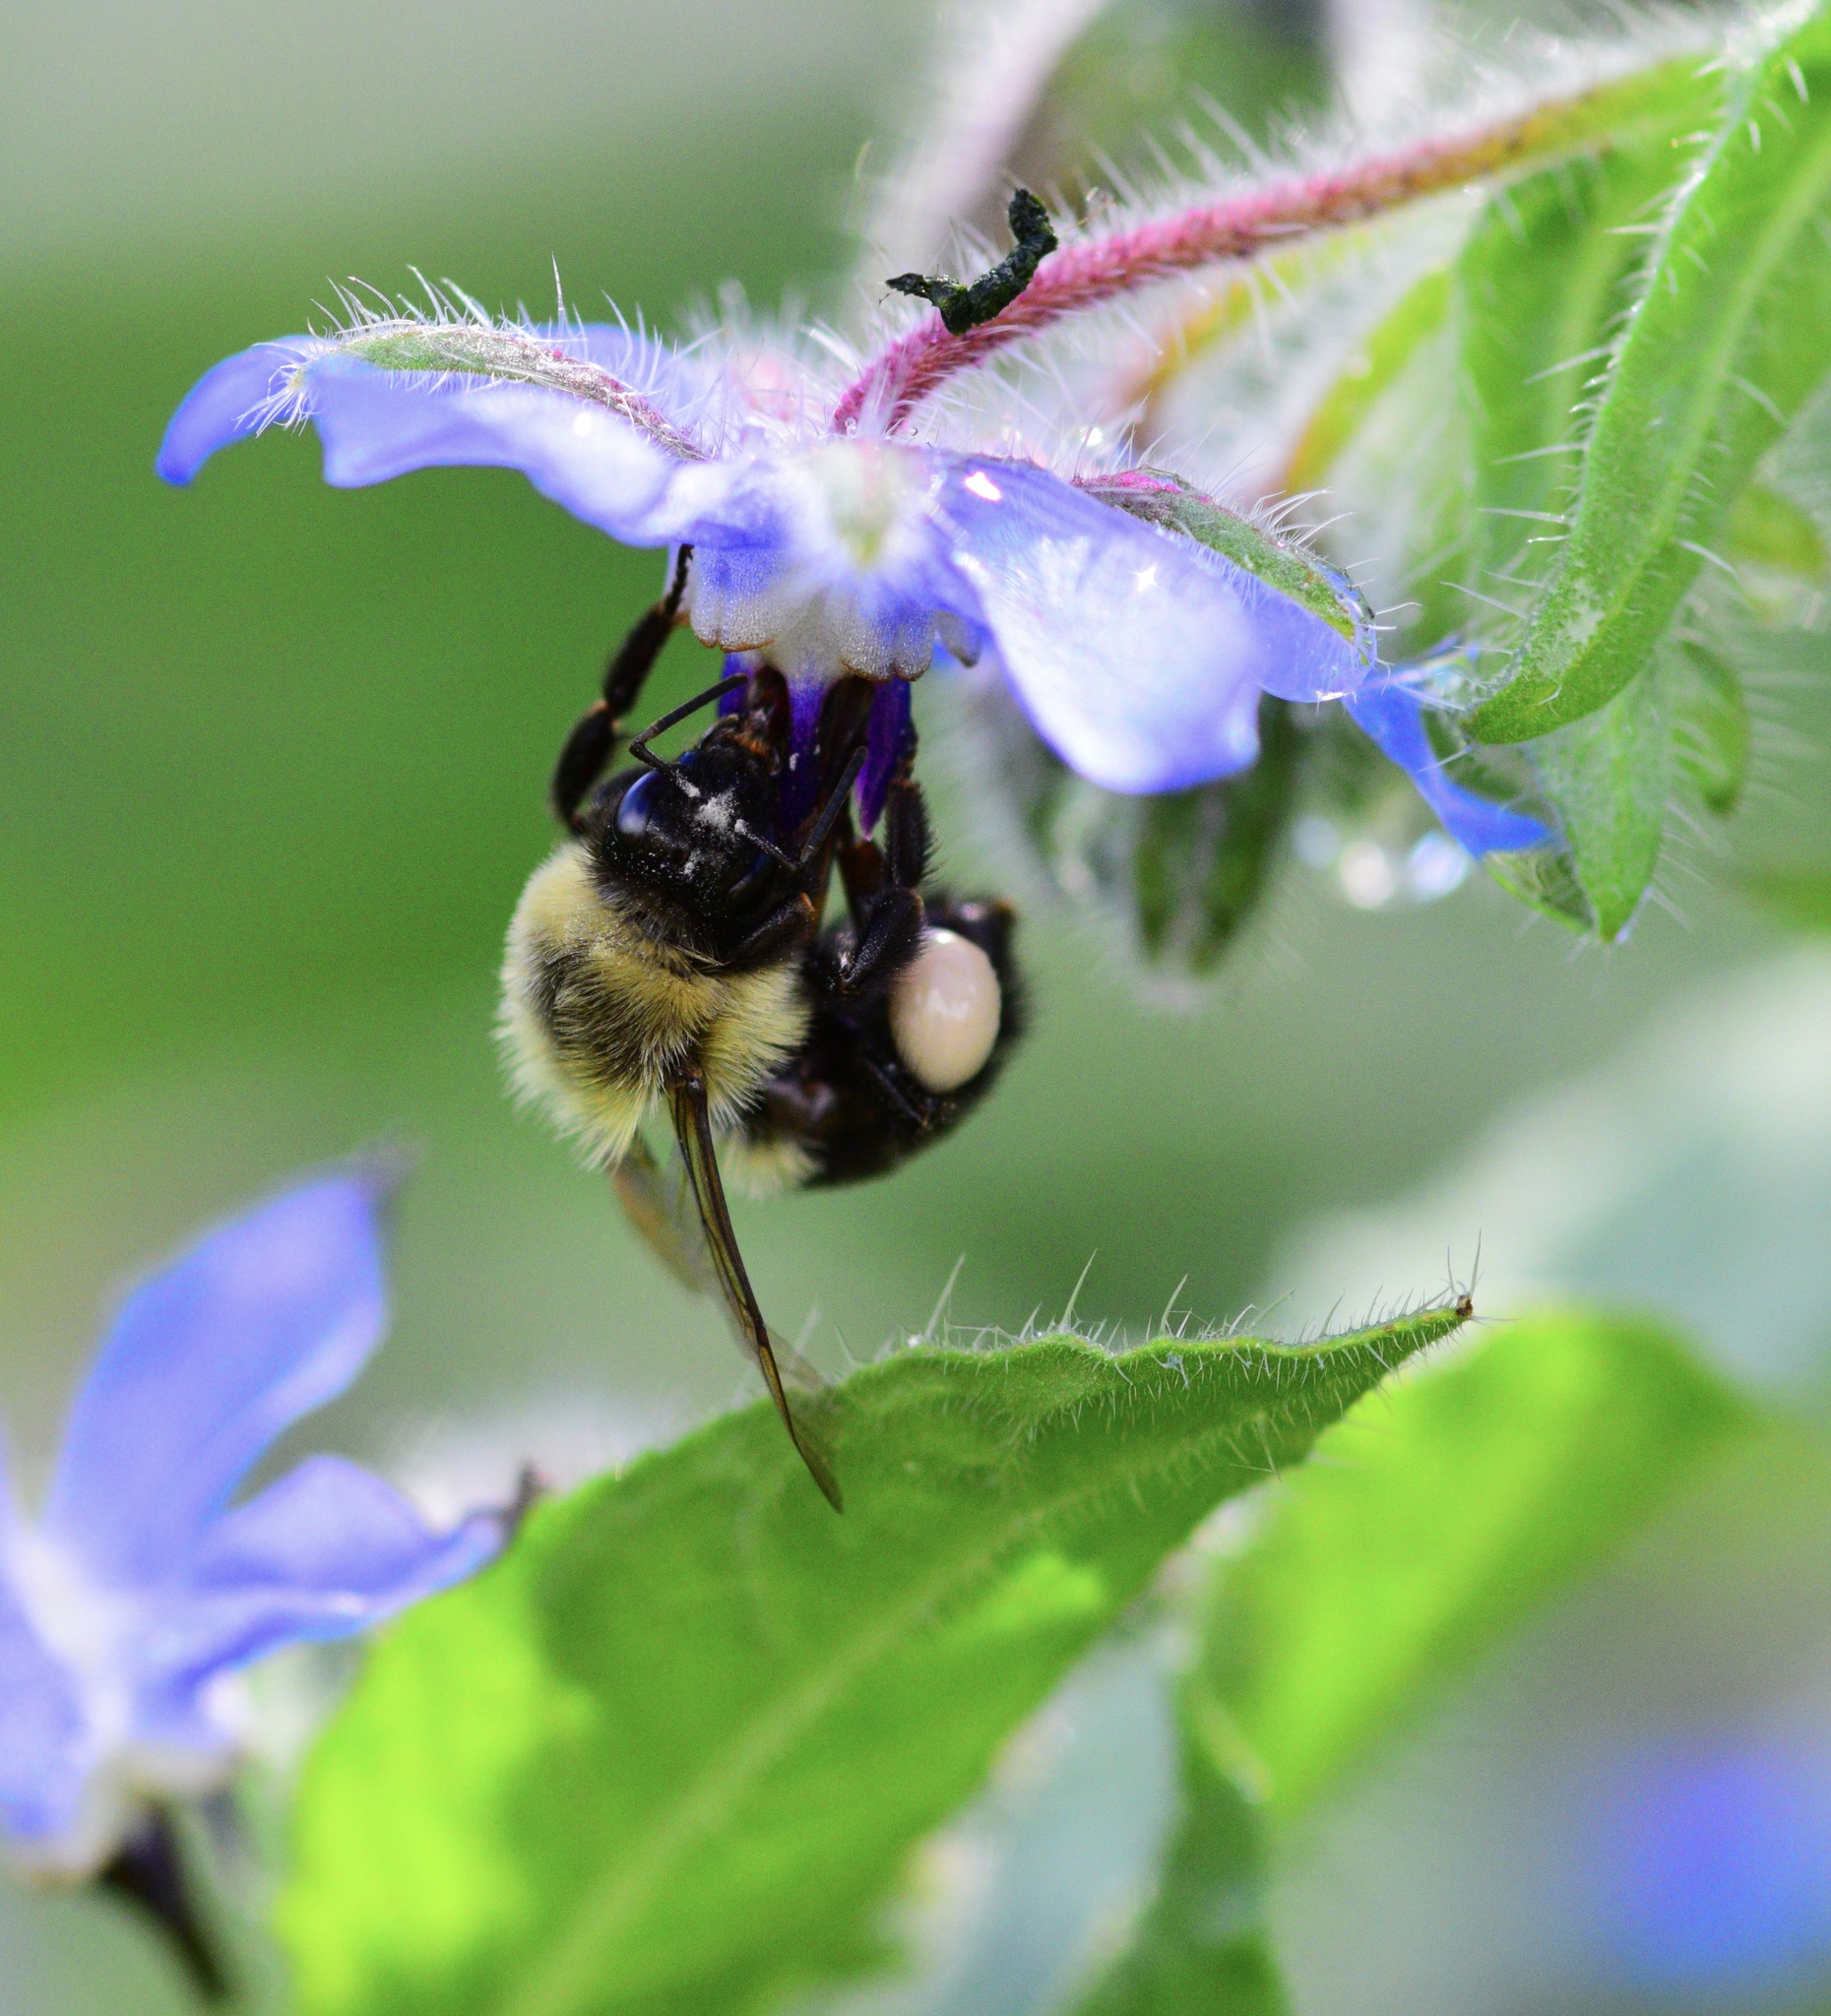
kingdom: Animalia
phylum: Arthropoda
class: Insecta
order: Hymenoptera
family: Apidae
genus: Bombus
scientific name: Bombus impatiens
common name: Common eastern bumble bee
